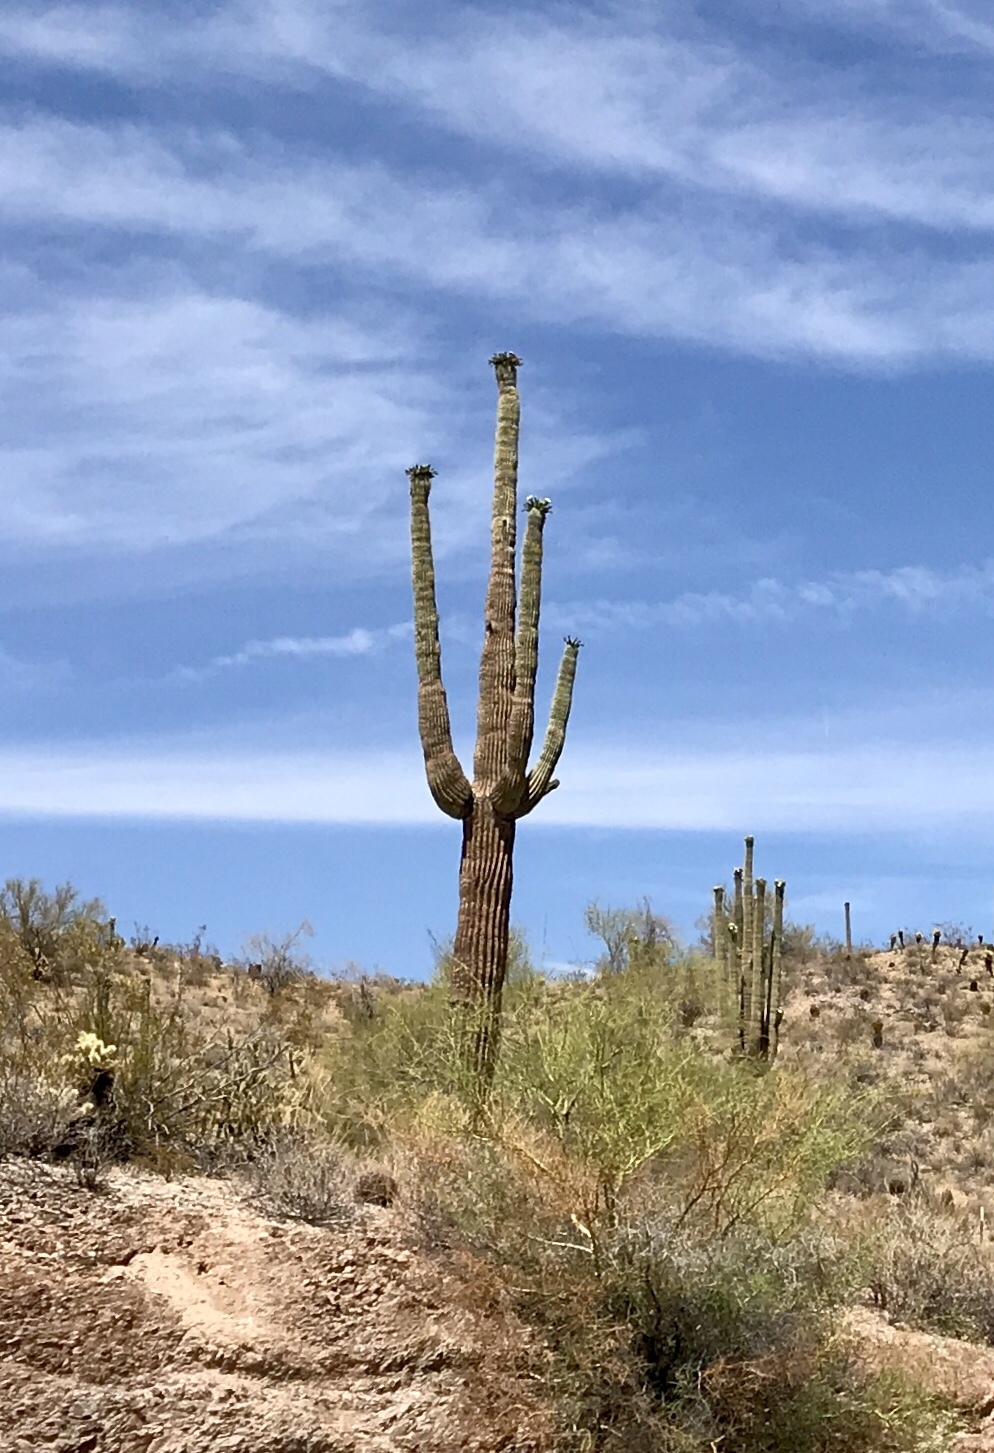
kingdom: Plantae
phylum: Tracheophyta
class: Magnoliopsida
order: Caryophyllales
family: Cactaceae
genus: Carnegiea
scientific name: Carnegiea gigantea
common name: Saguaro
